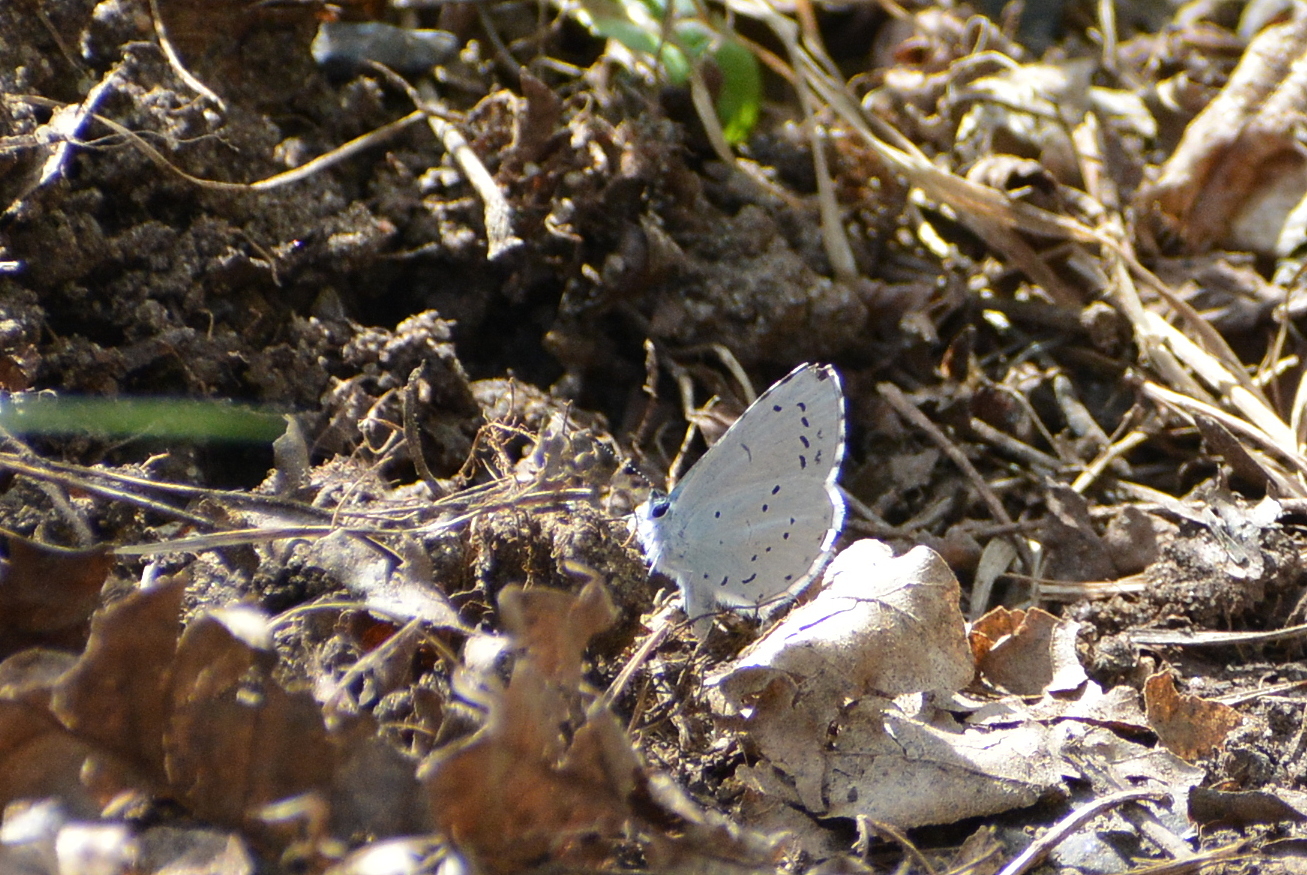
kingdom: Animalia
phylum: Arthropoda
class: Insecta
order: Lepidoptera
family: Lycaenidae
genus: Celastrina
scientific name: Celastrina argiolus
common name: Holly blue
